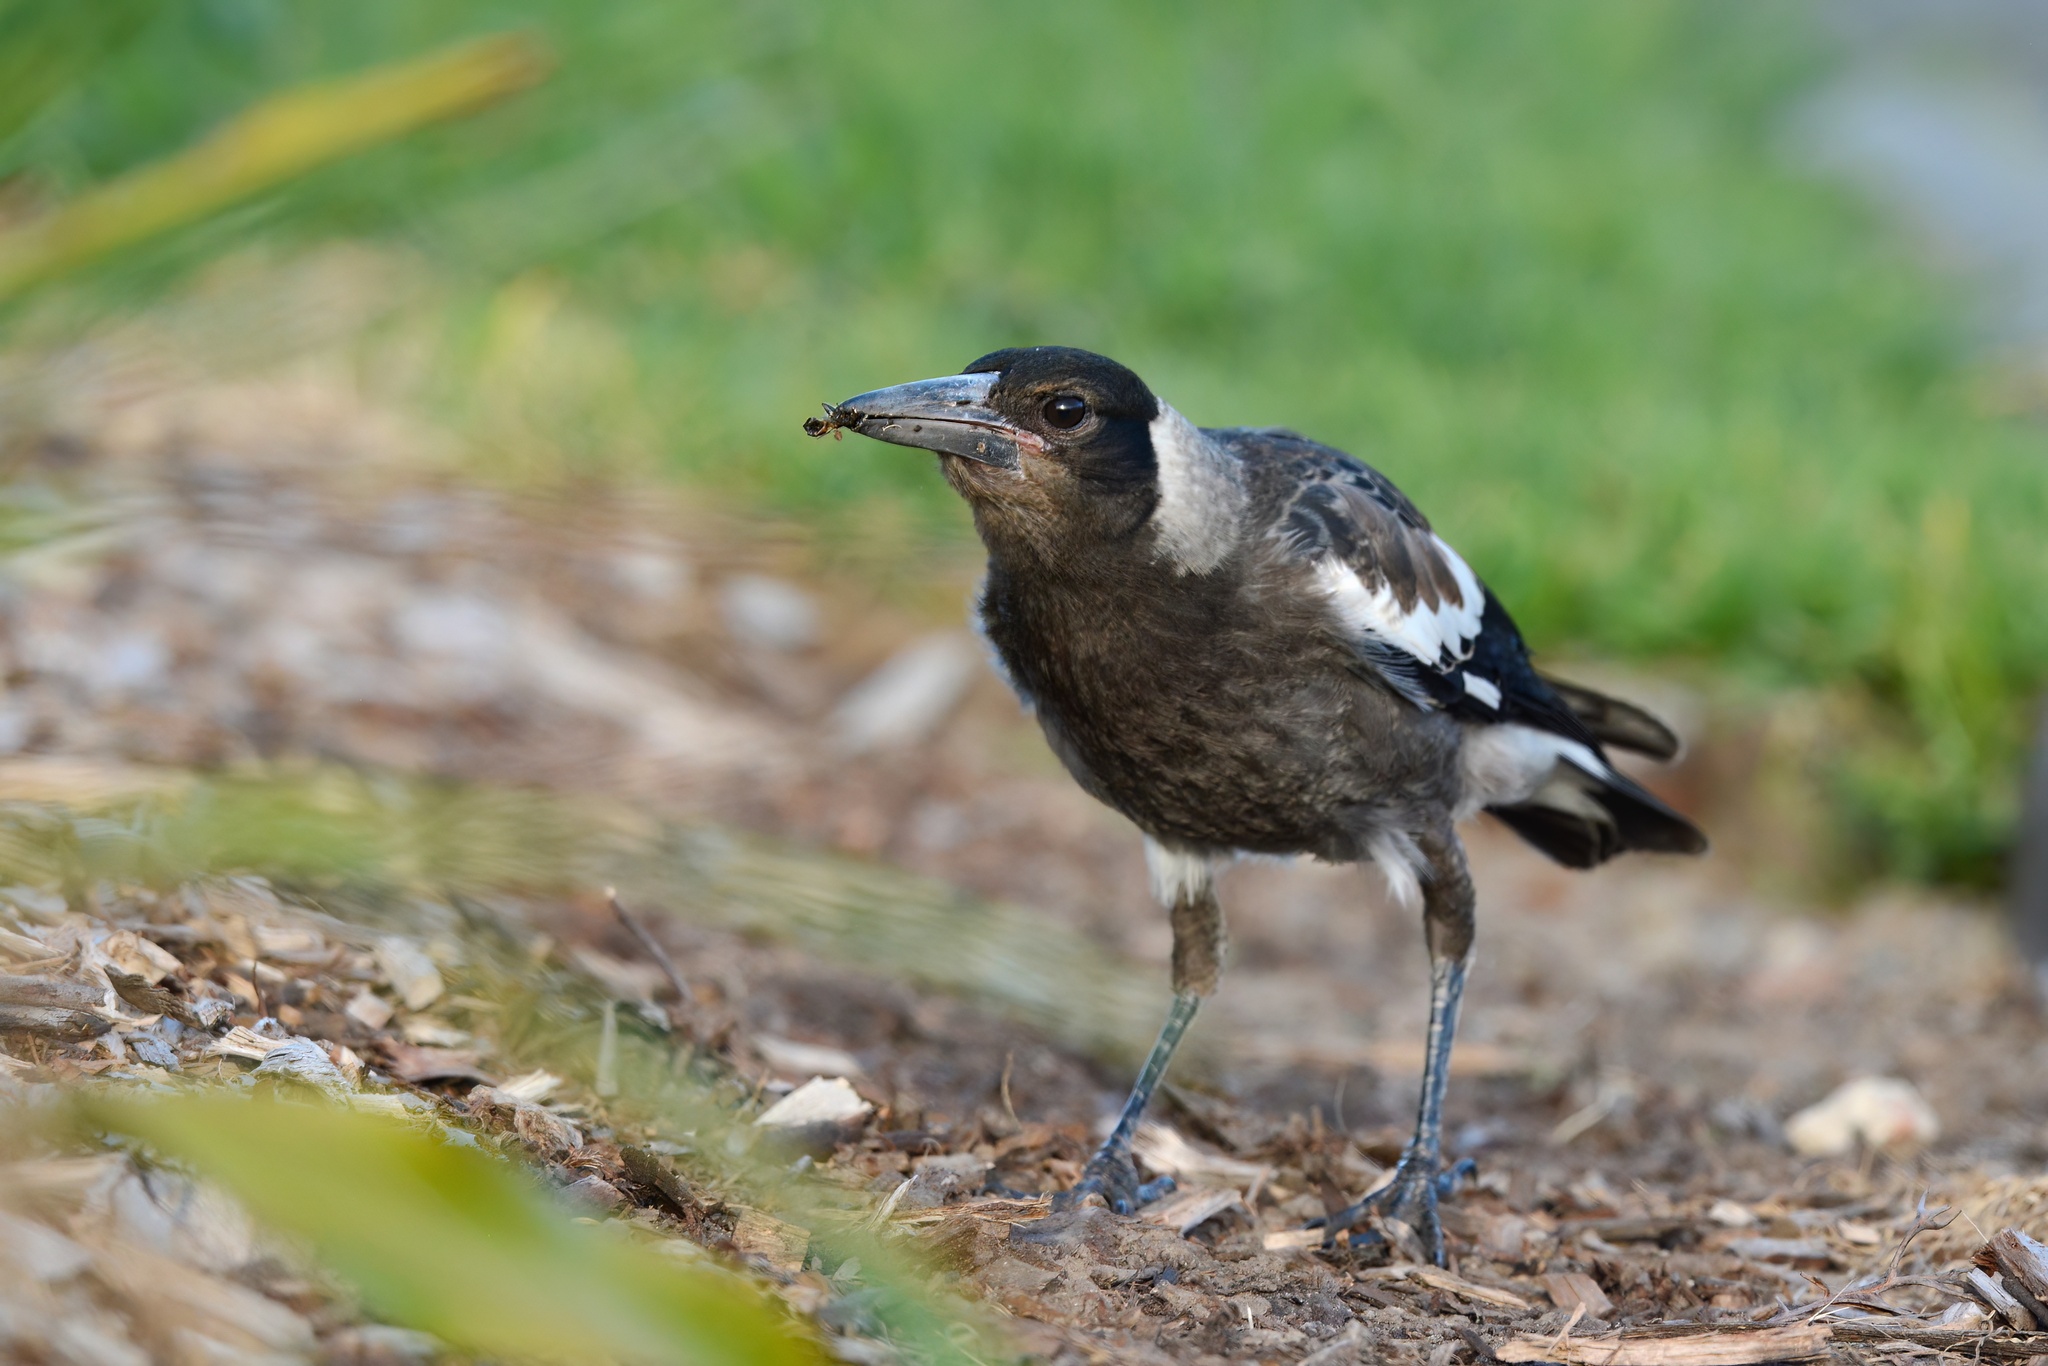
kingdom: Animalia
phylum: Chordata
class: Aves
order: Passeriformes
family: Cracticidae
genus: Gymnorhina
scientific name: Gymnorhina tibicen
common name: Australian magpie
